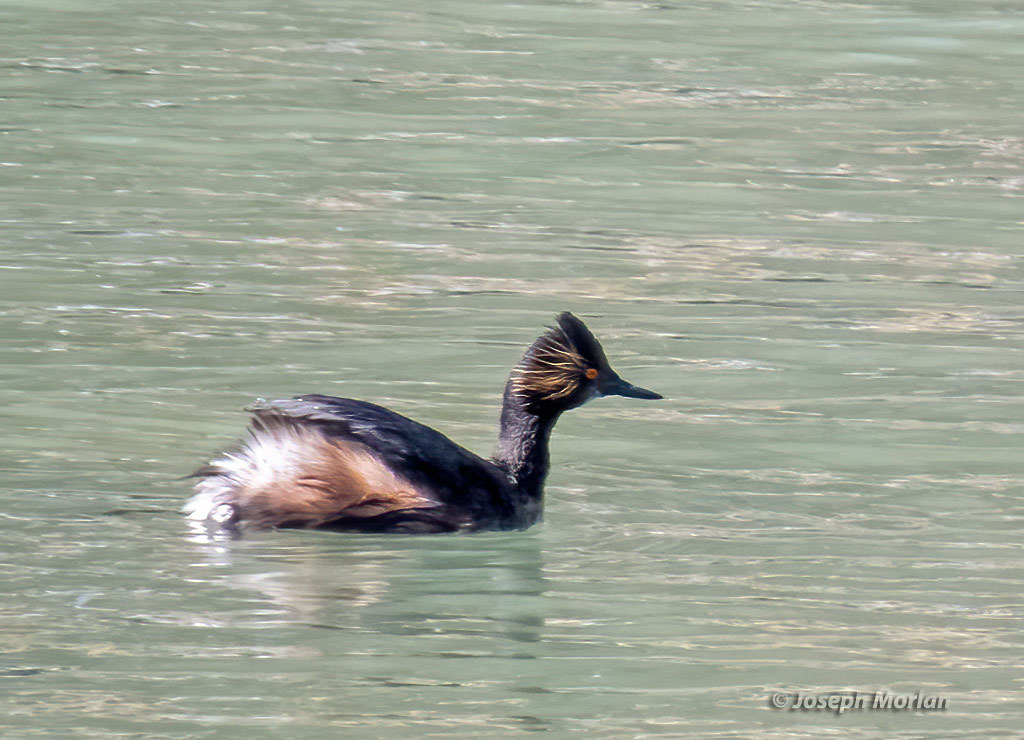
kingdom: Animalia
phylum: Chordata
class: Aves
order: Podicipediformes
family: Podicipedidae
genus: Podiceps
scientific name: Podiceps nigricollis
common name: Black-necked grebe
